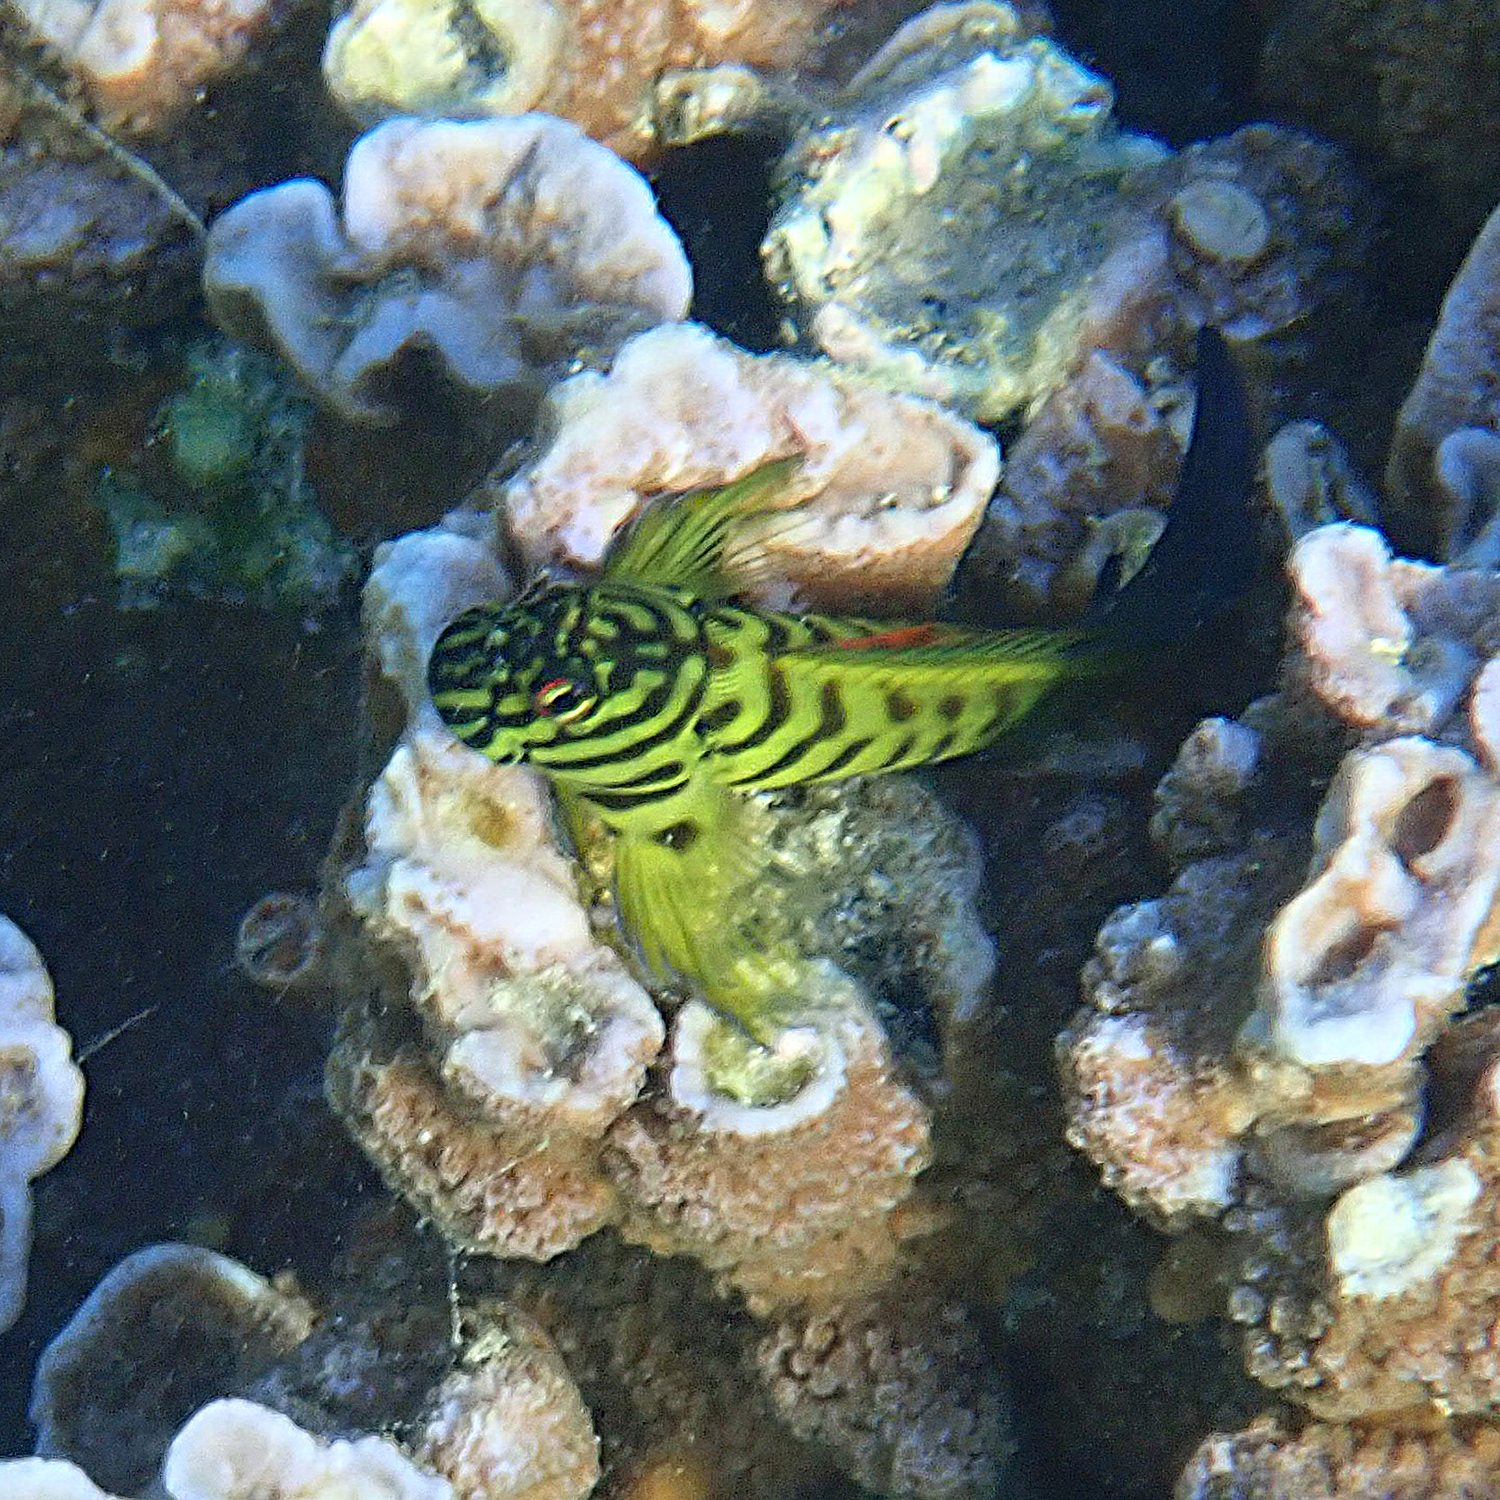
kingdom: Animalia
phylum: Chordata
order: Perciformes
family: Blenniidae
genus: Cirripectes
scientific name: Cirripectes castaneus
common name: Chestnut blenny
